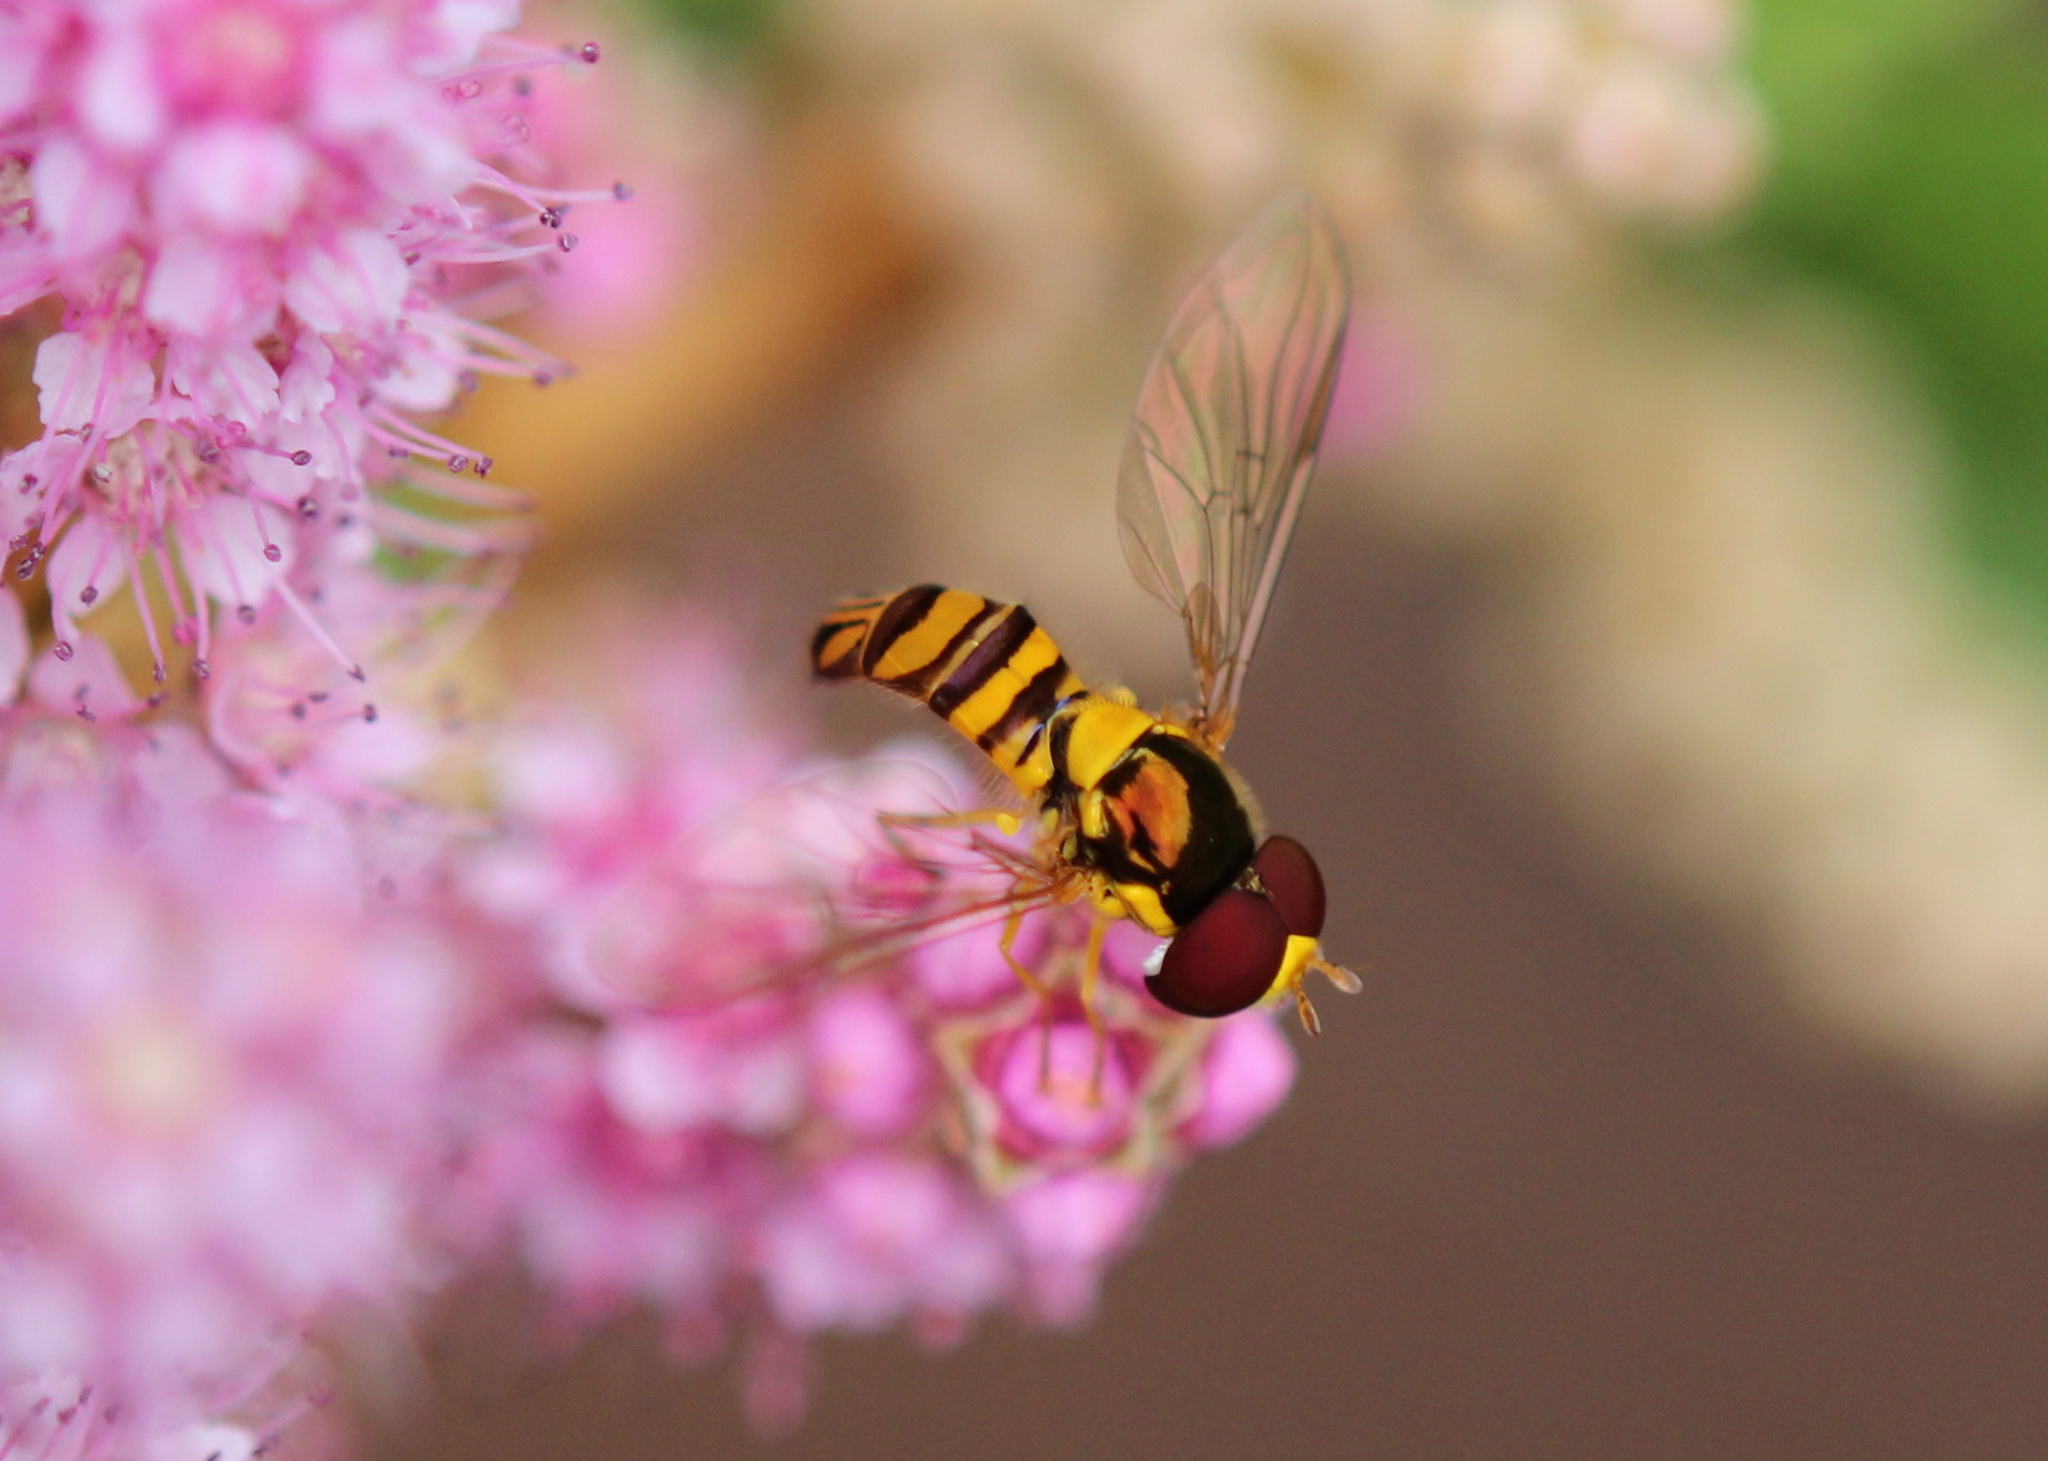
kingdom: Animalia
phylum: Arthropoda
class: Insecta
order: Diptera
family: Syrphidae
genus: Allograpta
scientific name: Allograpta obliqua
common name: Common oblique syrphid
